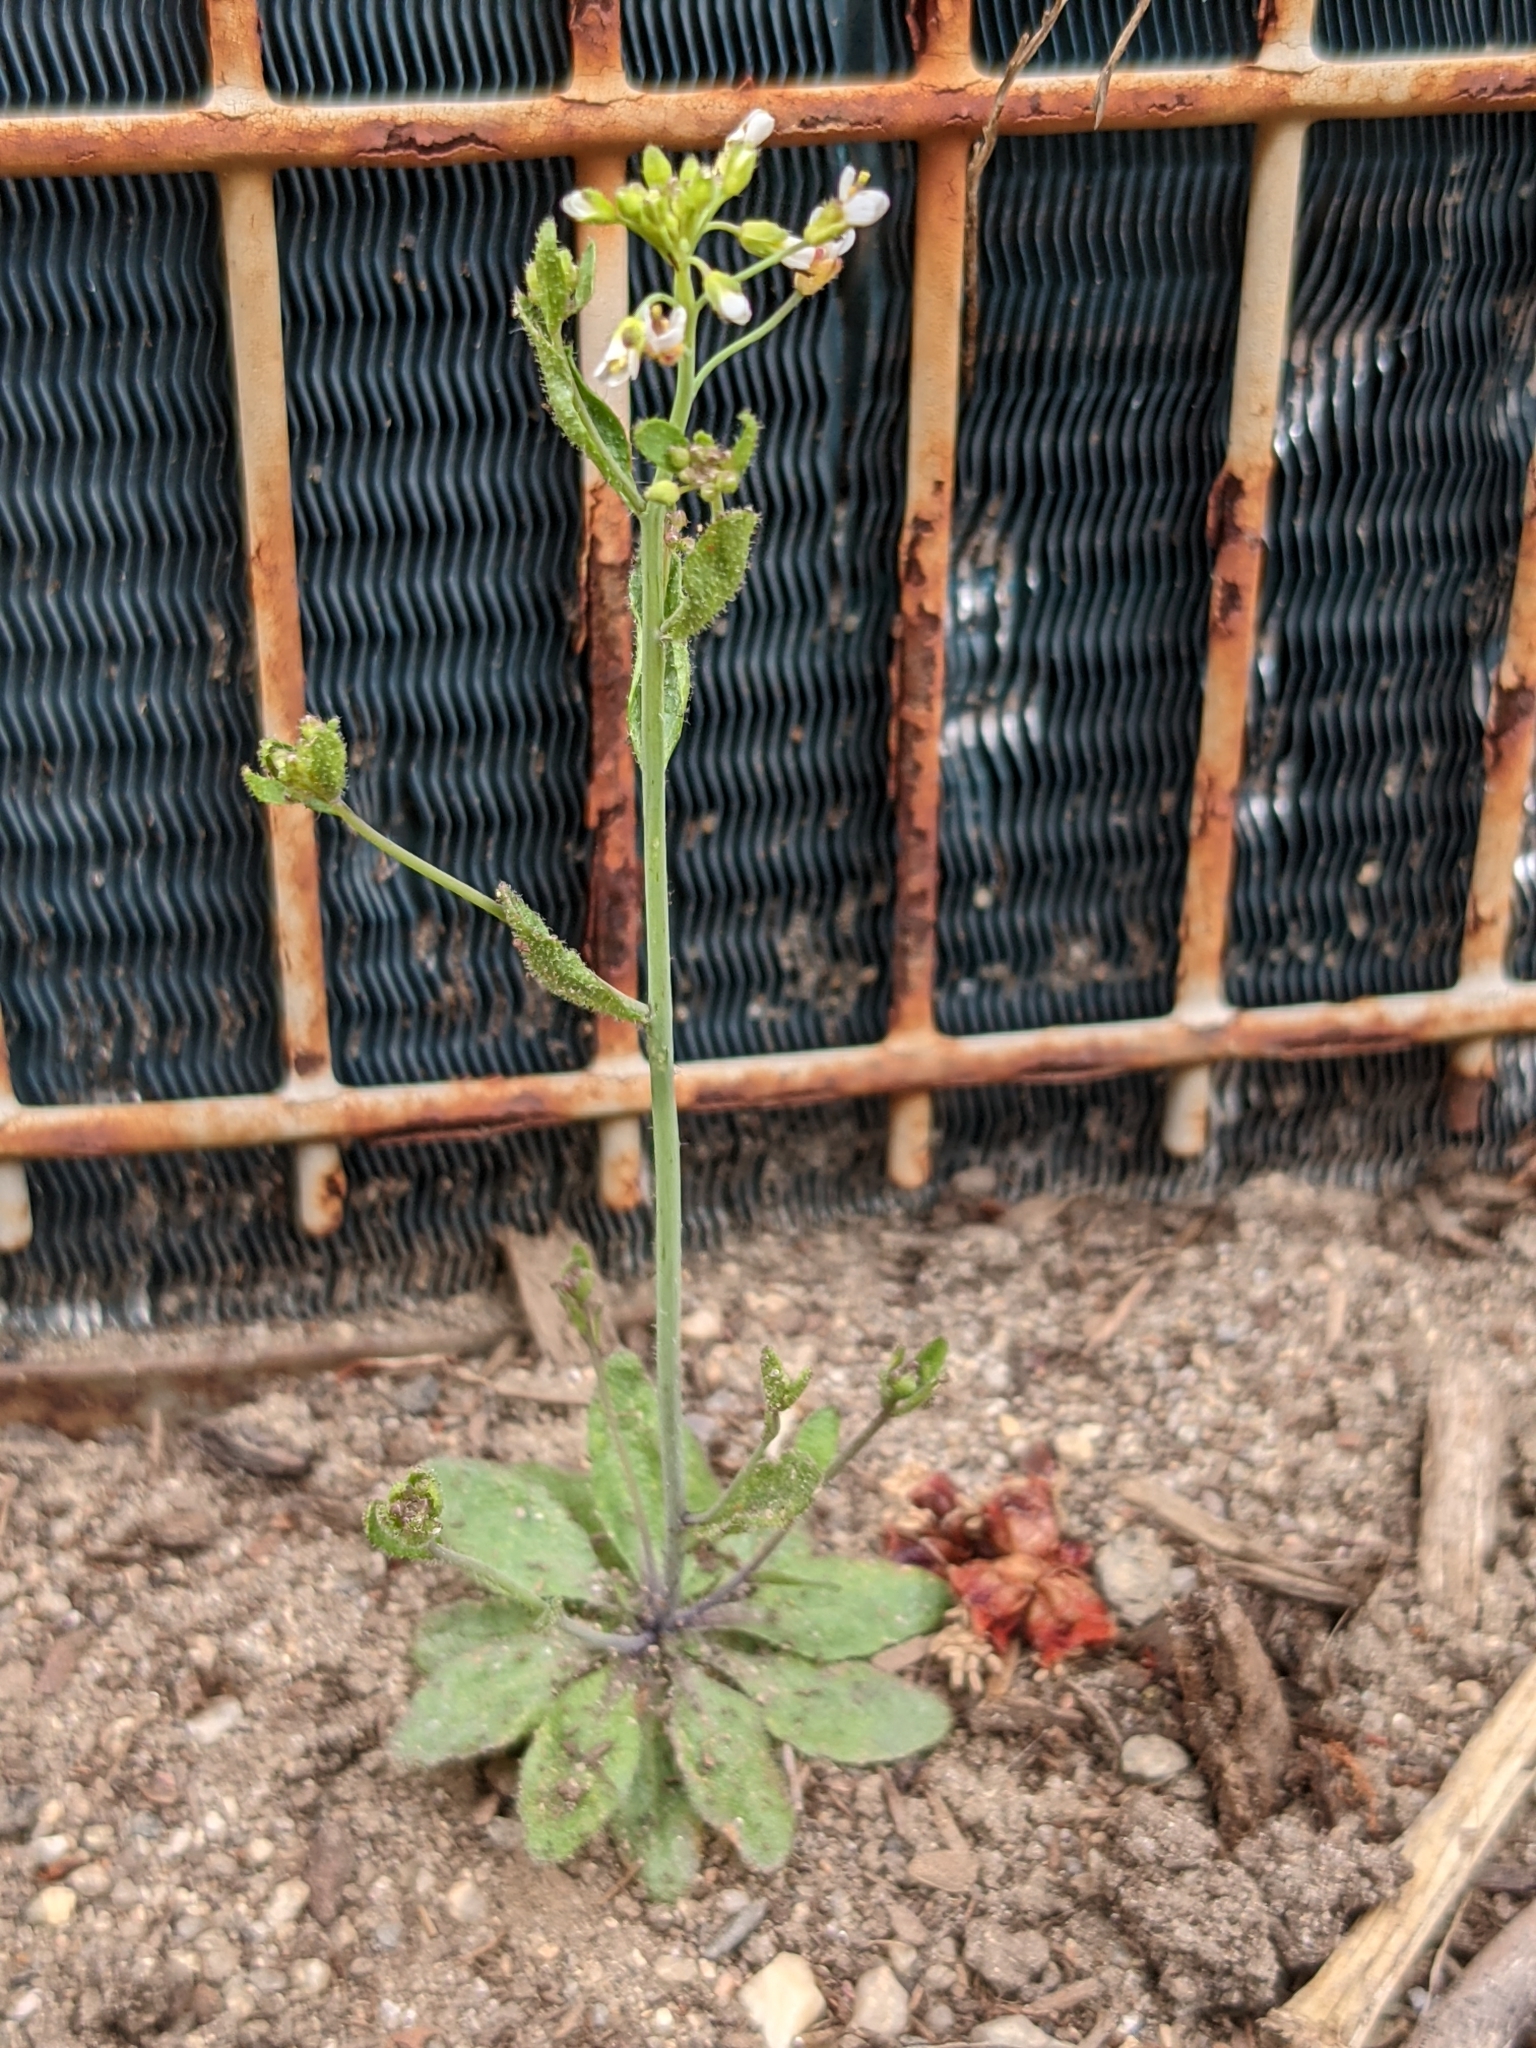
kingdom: Plantae
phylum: Tracheophyta
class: Magnoliopsida
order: Brassicales
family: Brassicaceae
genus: Arabidopsis
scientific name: Arabidopsis thaliana
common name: Thale cress
